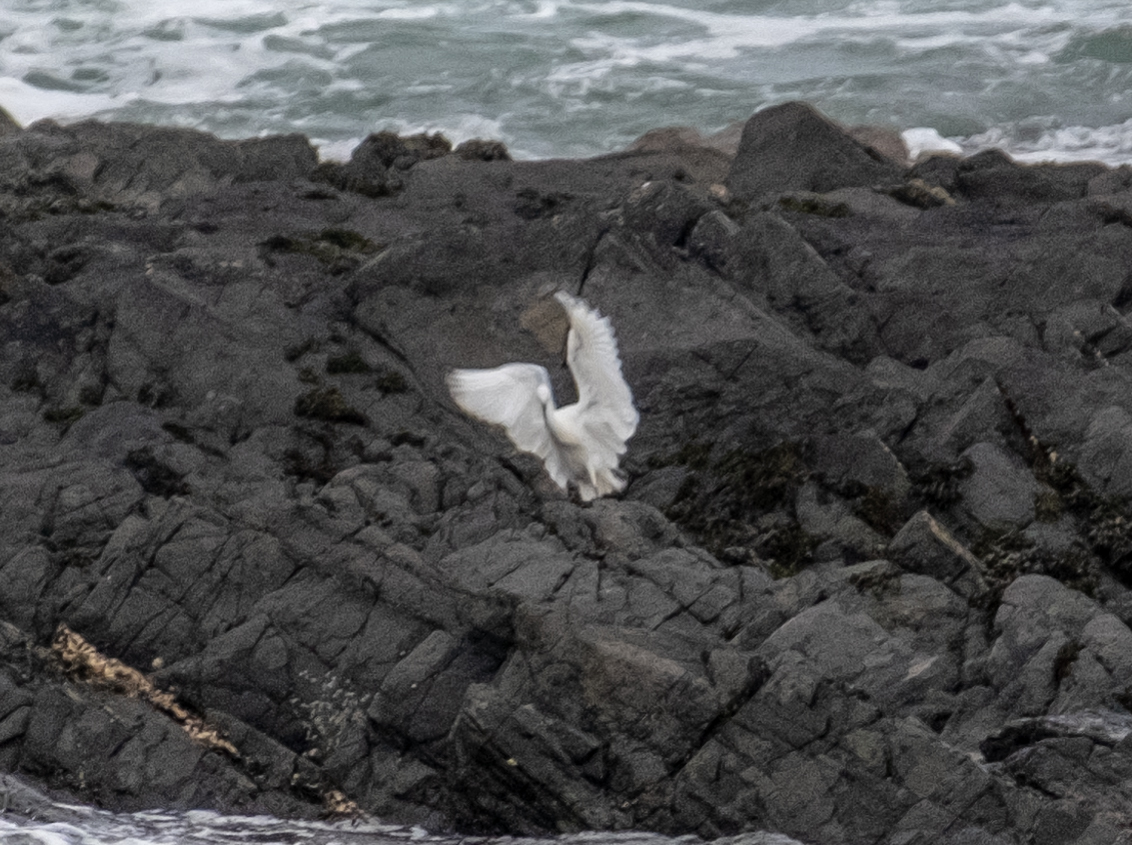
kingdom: Animalia
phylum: Chordata
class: Aves
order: Pelecaniformes
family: Ardeidae
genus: Egretta
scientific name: Egretta garzetta
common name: Little egret
